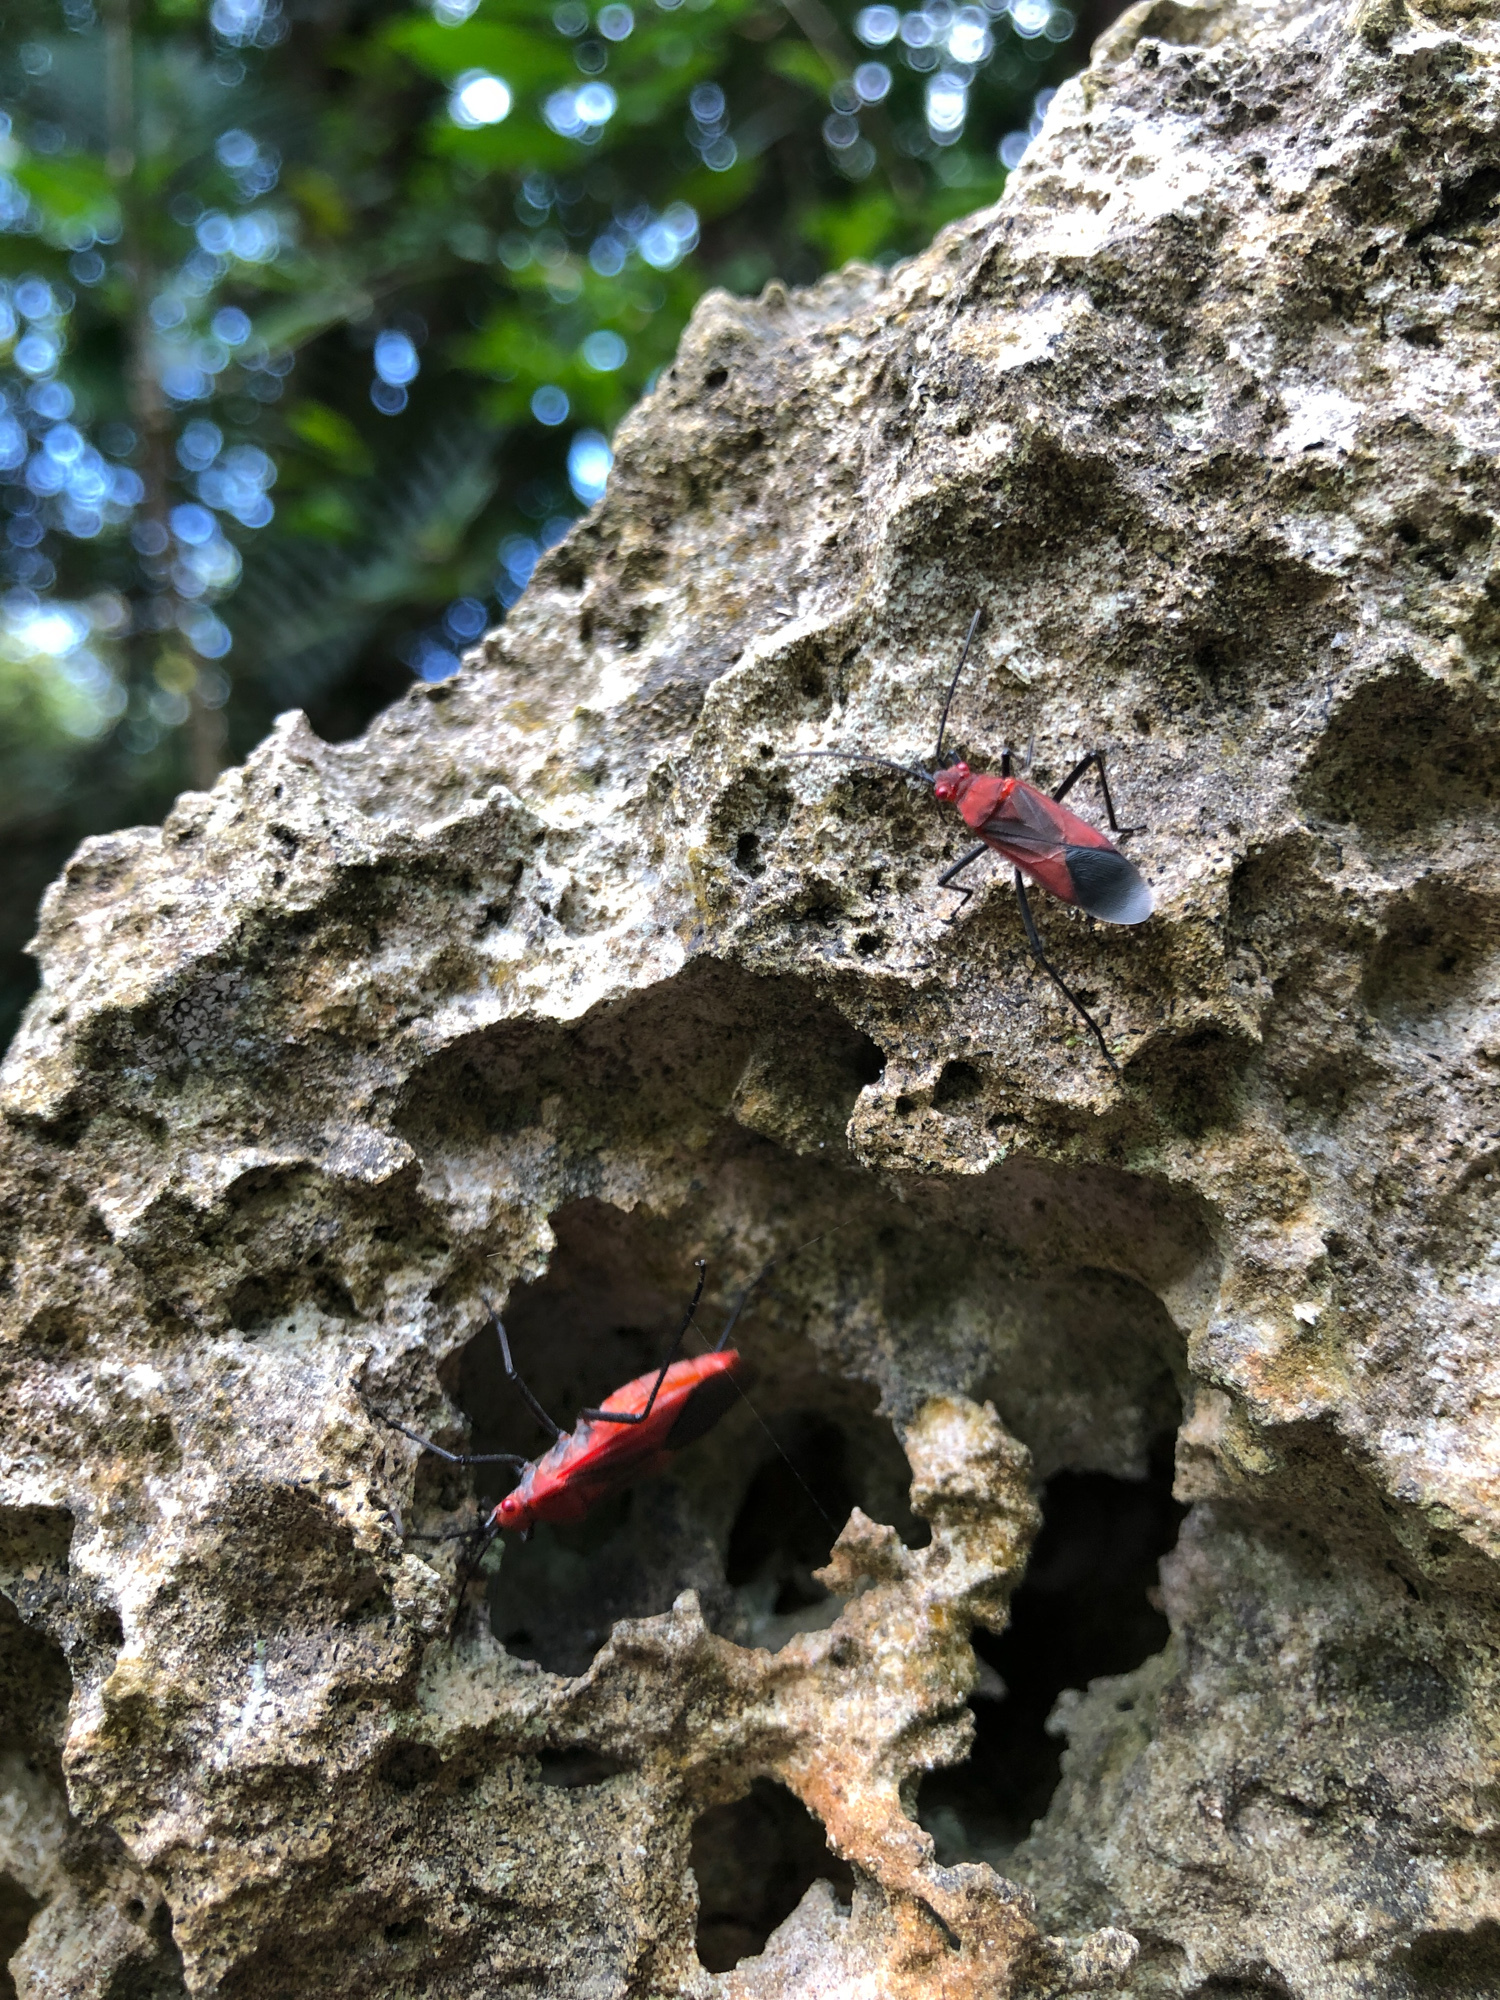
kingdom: Animalia
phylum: Arthropoda
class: Insecta
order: Hemiptera
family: Rhopalidae
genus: Leptocoris
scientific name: Leptocoris vicinus
